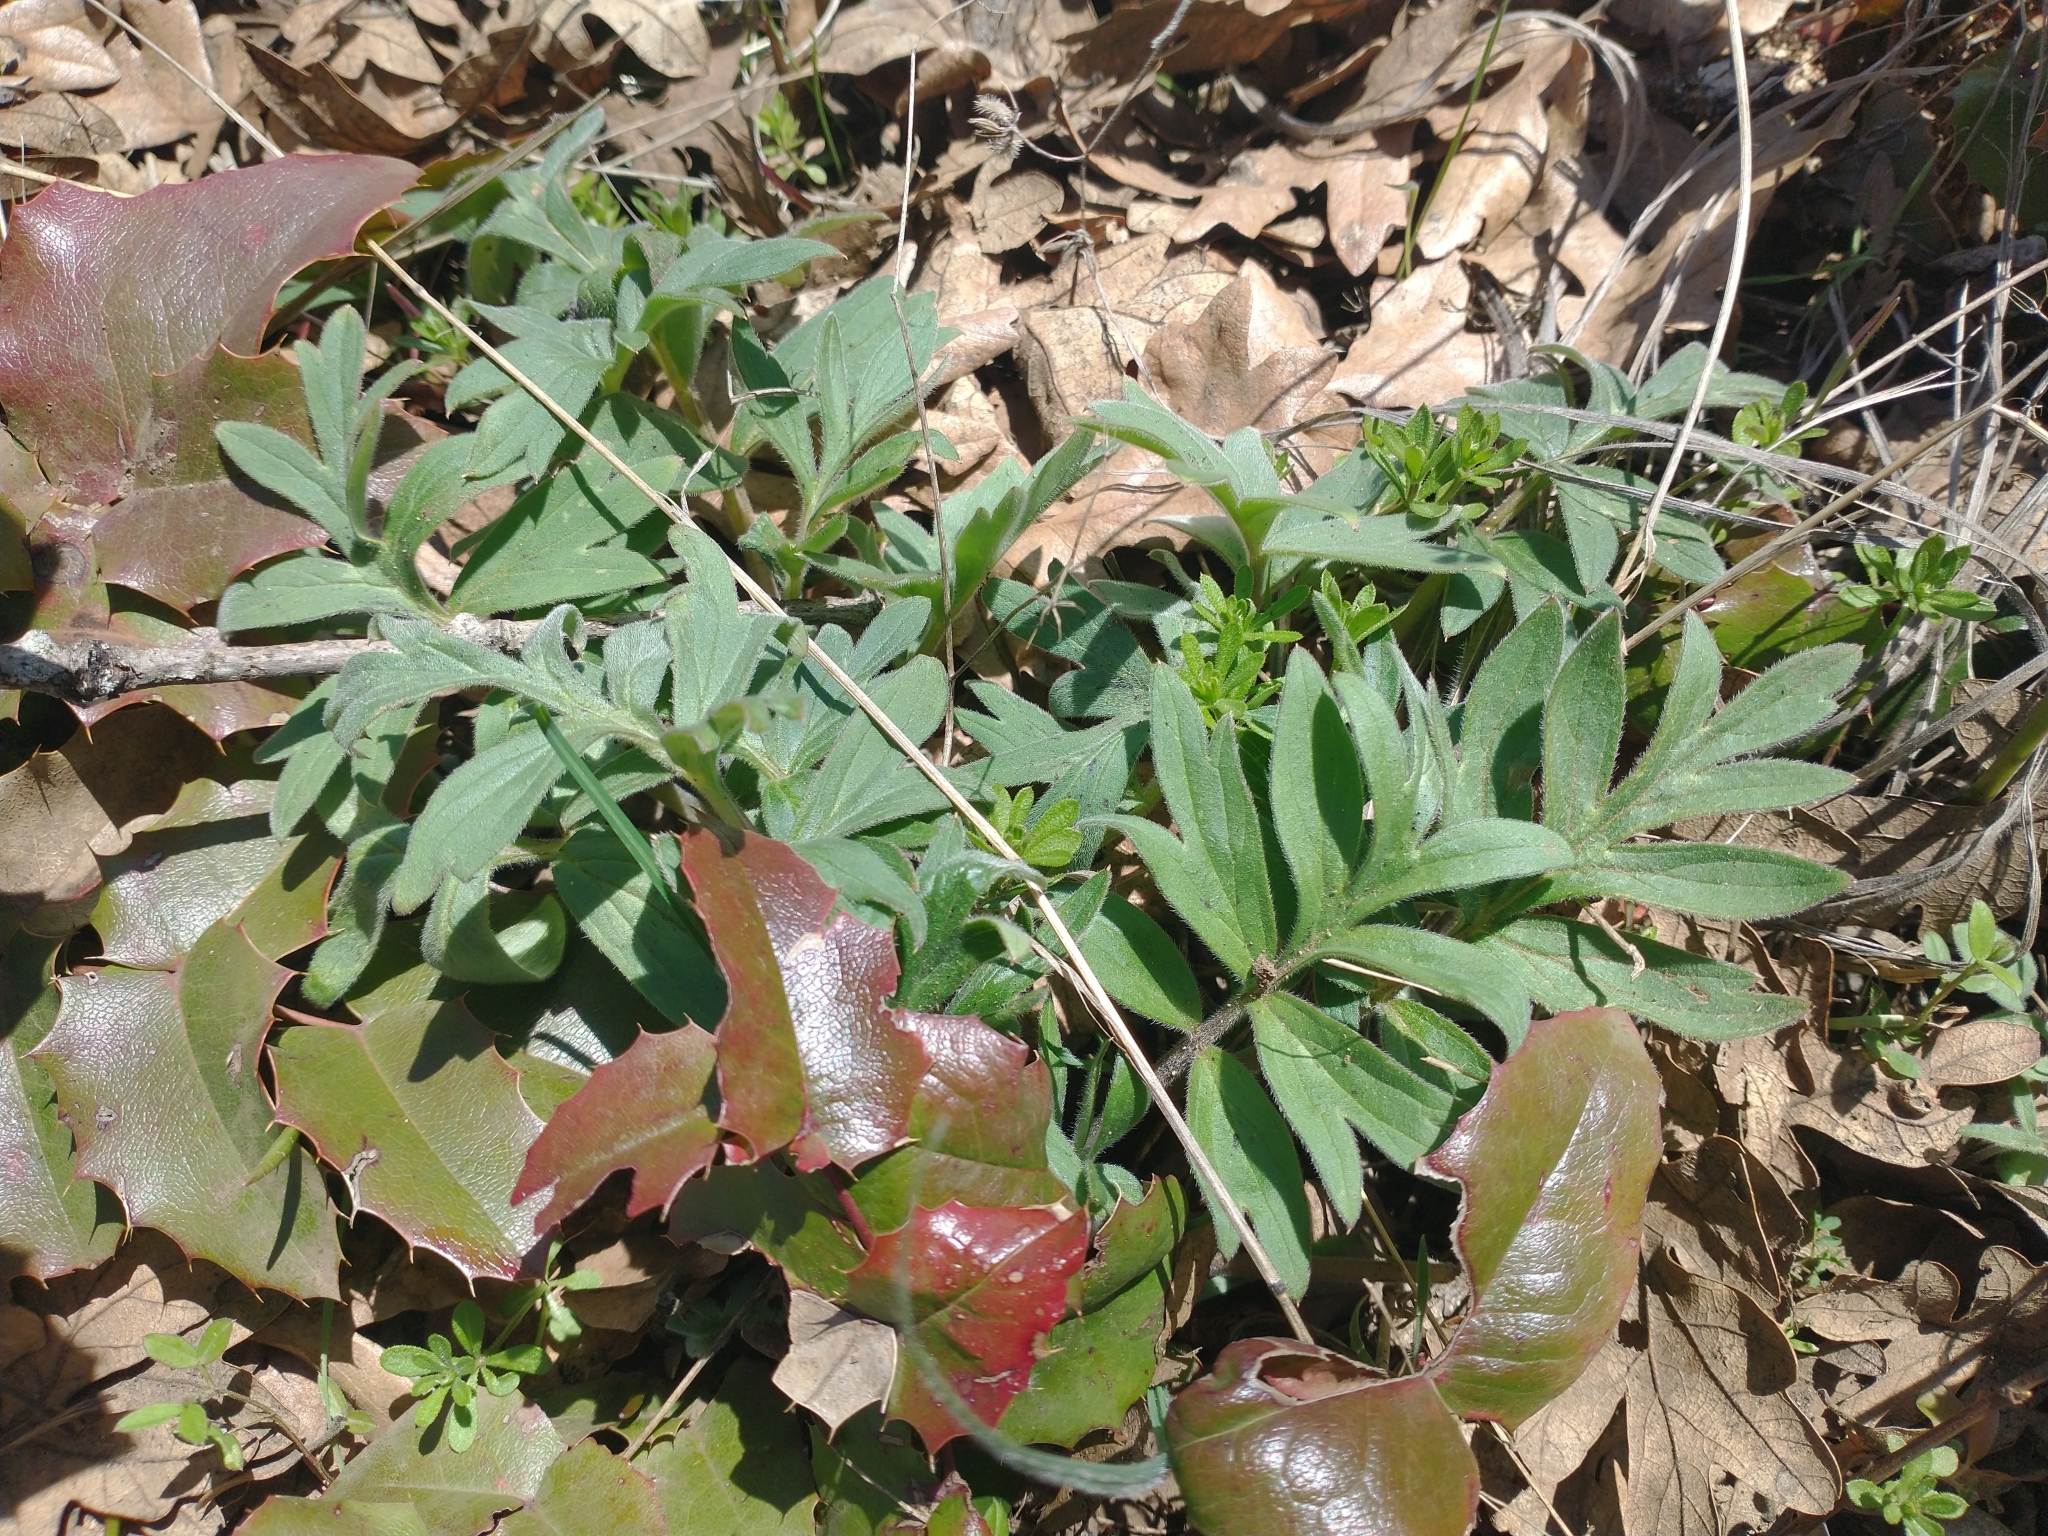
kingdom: Plantae
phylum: Tracheophyta
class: Magnoliopsida
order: Boraginales
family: Hydrophyllaceae
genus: Hydrophyllum
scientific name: Hydrophyllum capitatum
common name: Woollen-breeches
